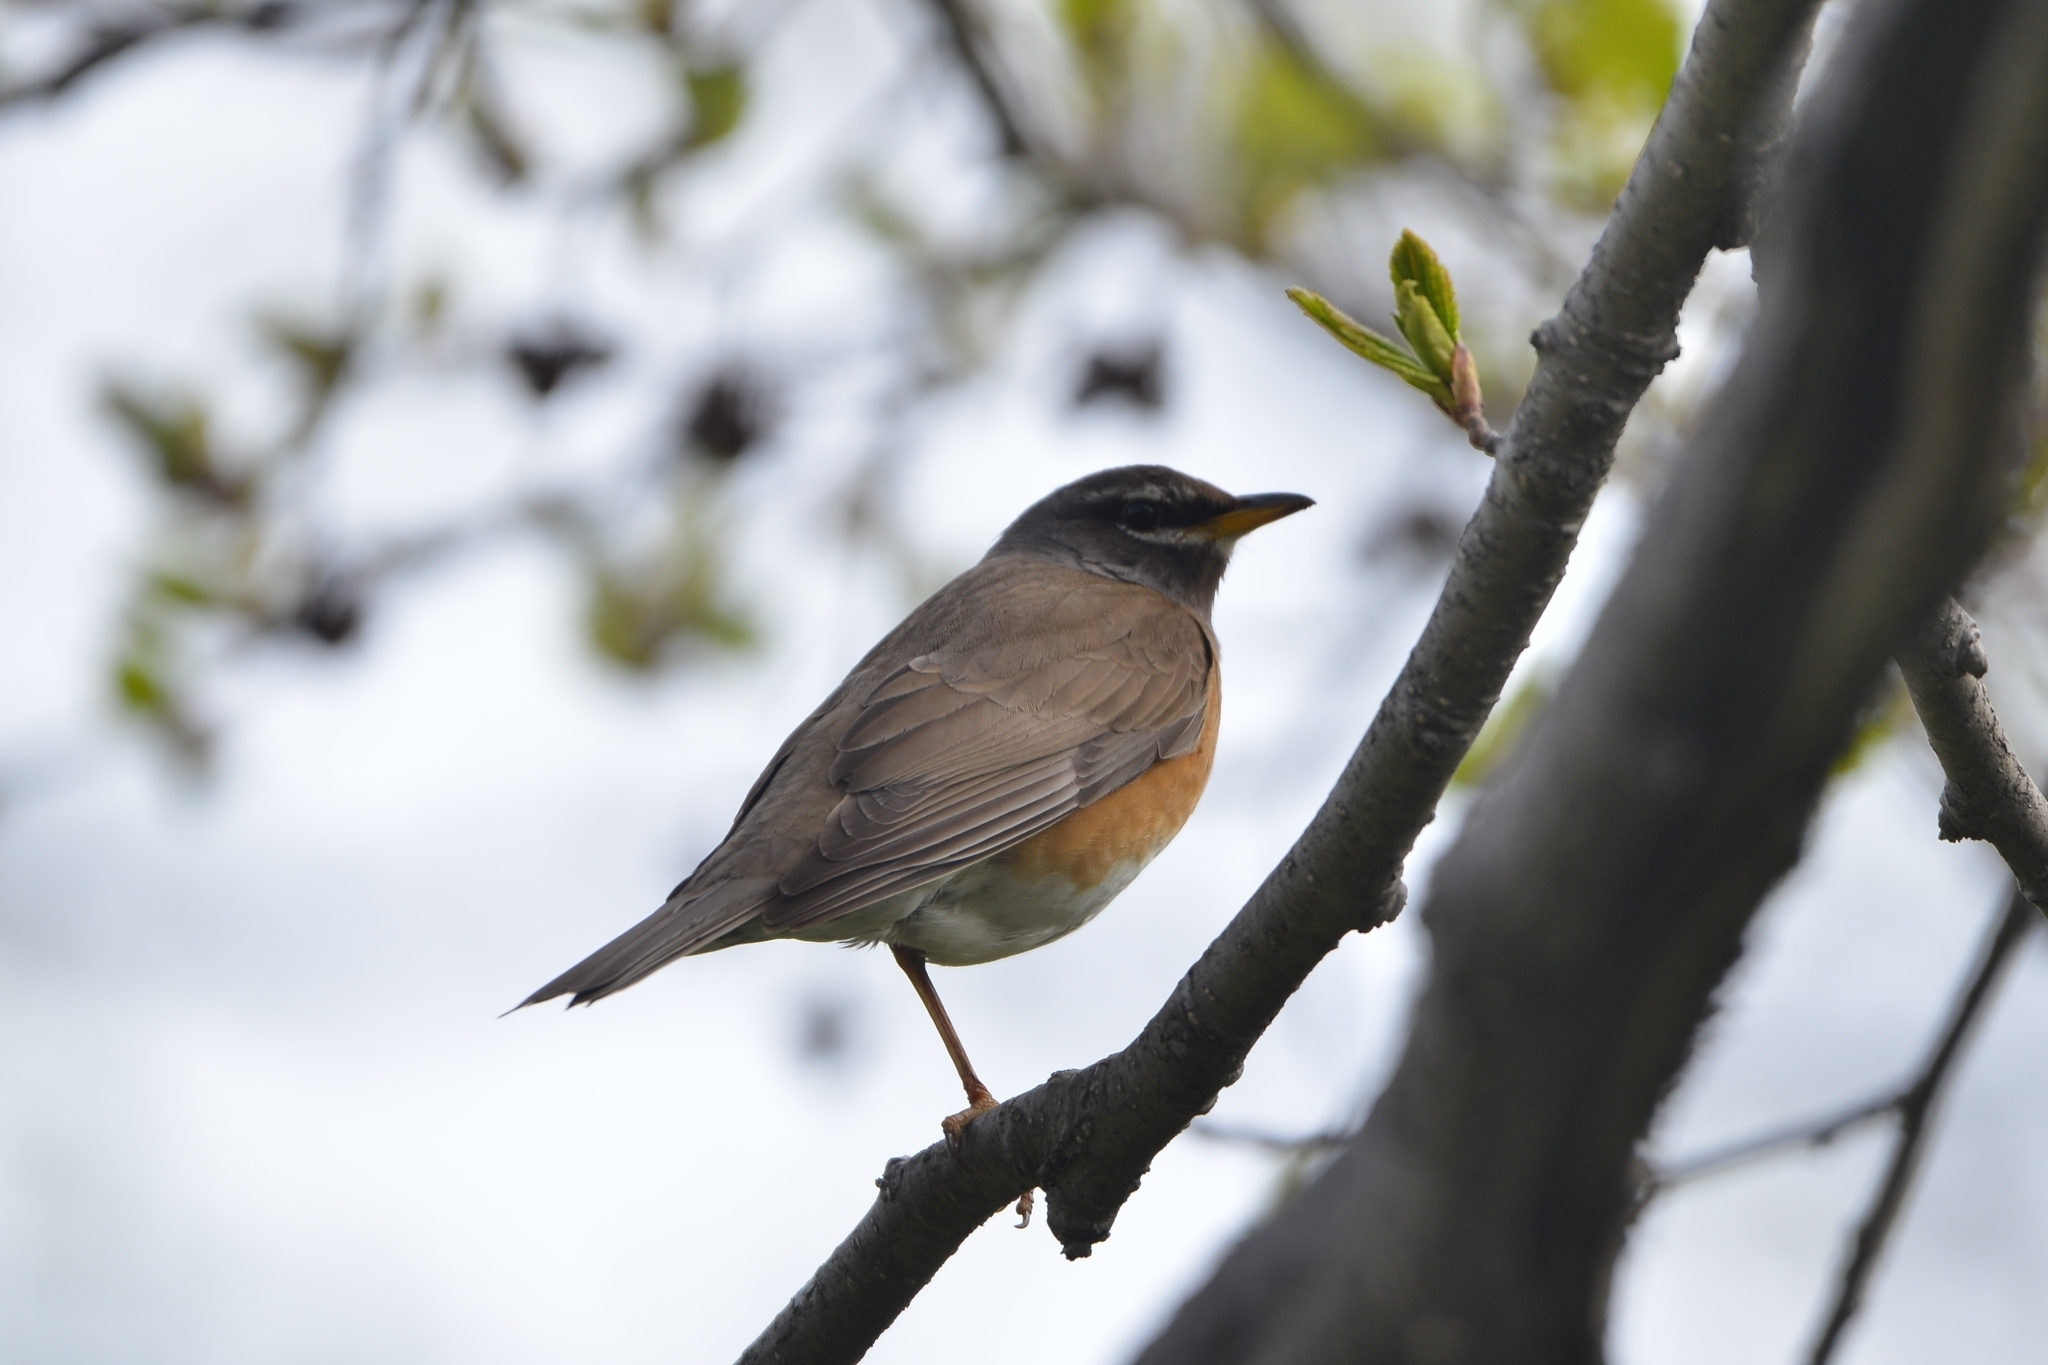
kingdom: Animalia
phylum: Chordata
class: Aves
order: Passeriformes
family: Turdidae
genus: Turdus
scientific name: Turdus obscurus
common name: Eyebrowed thrush
